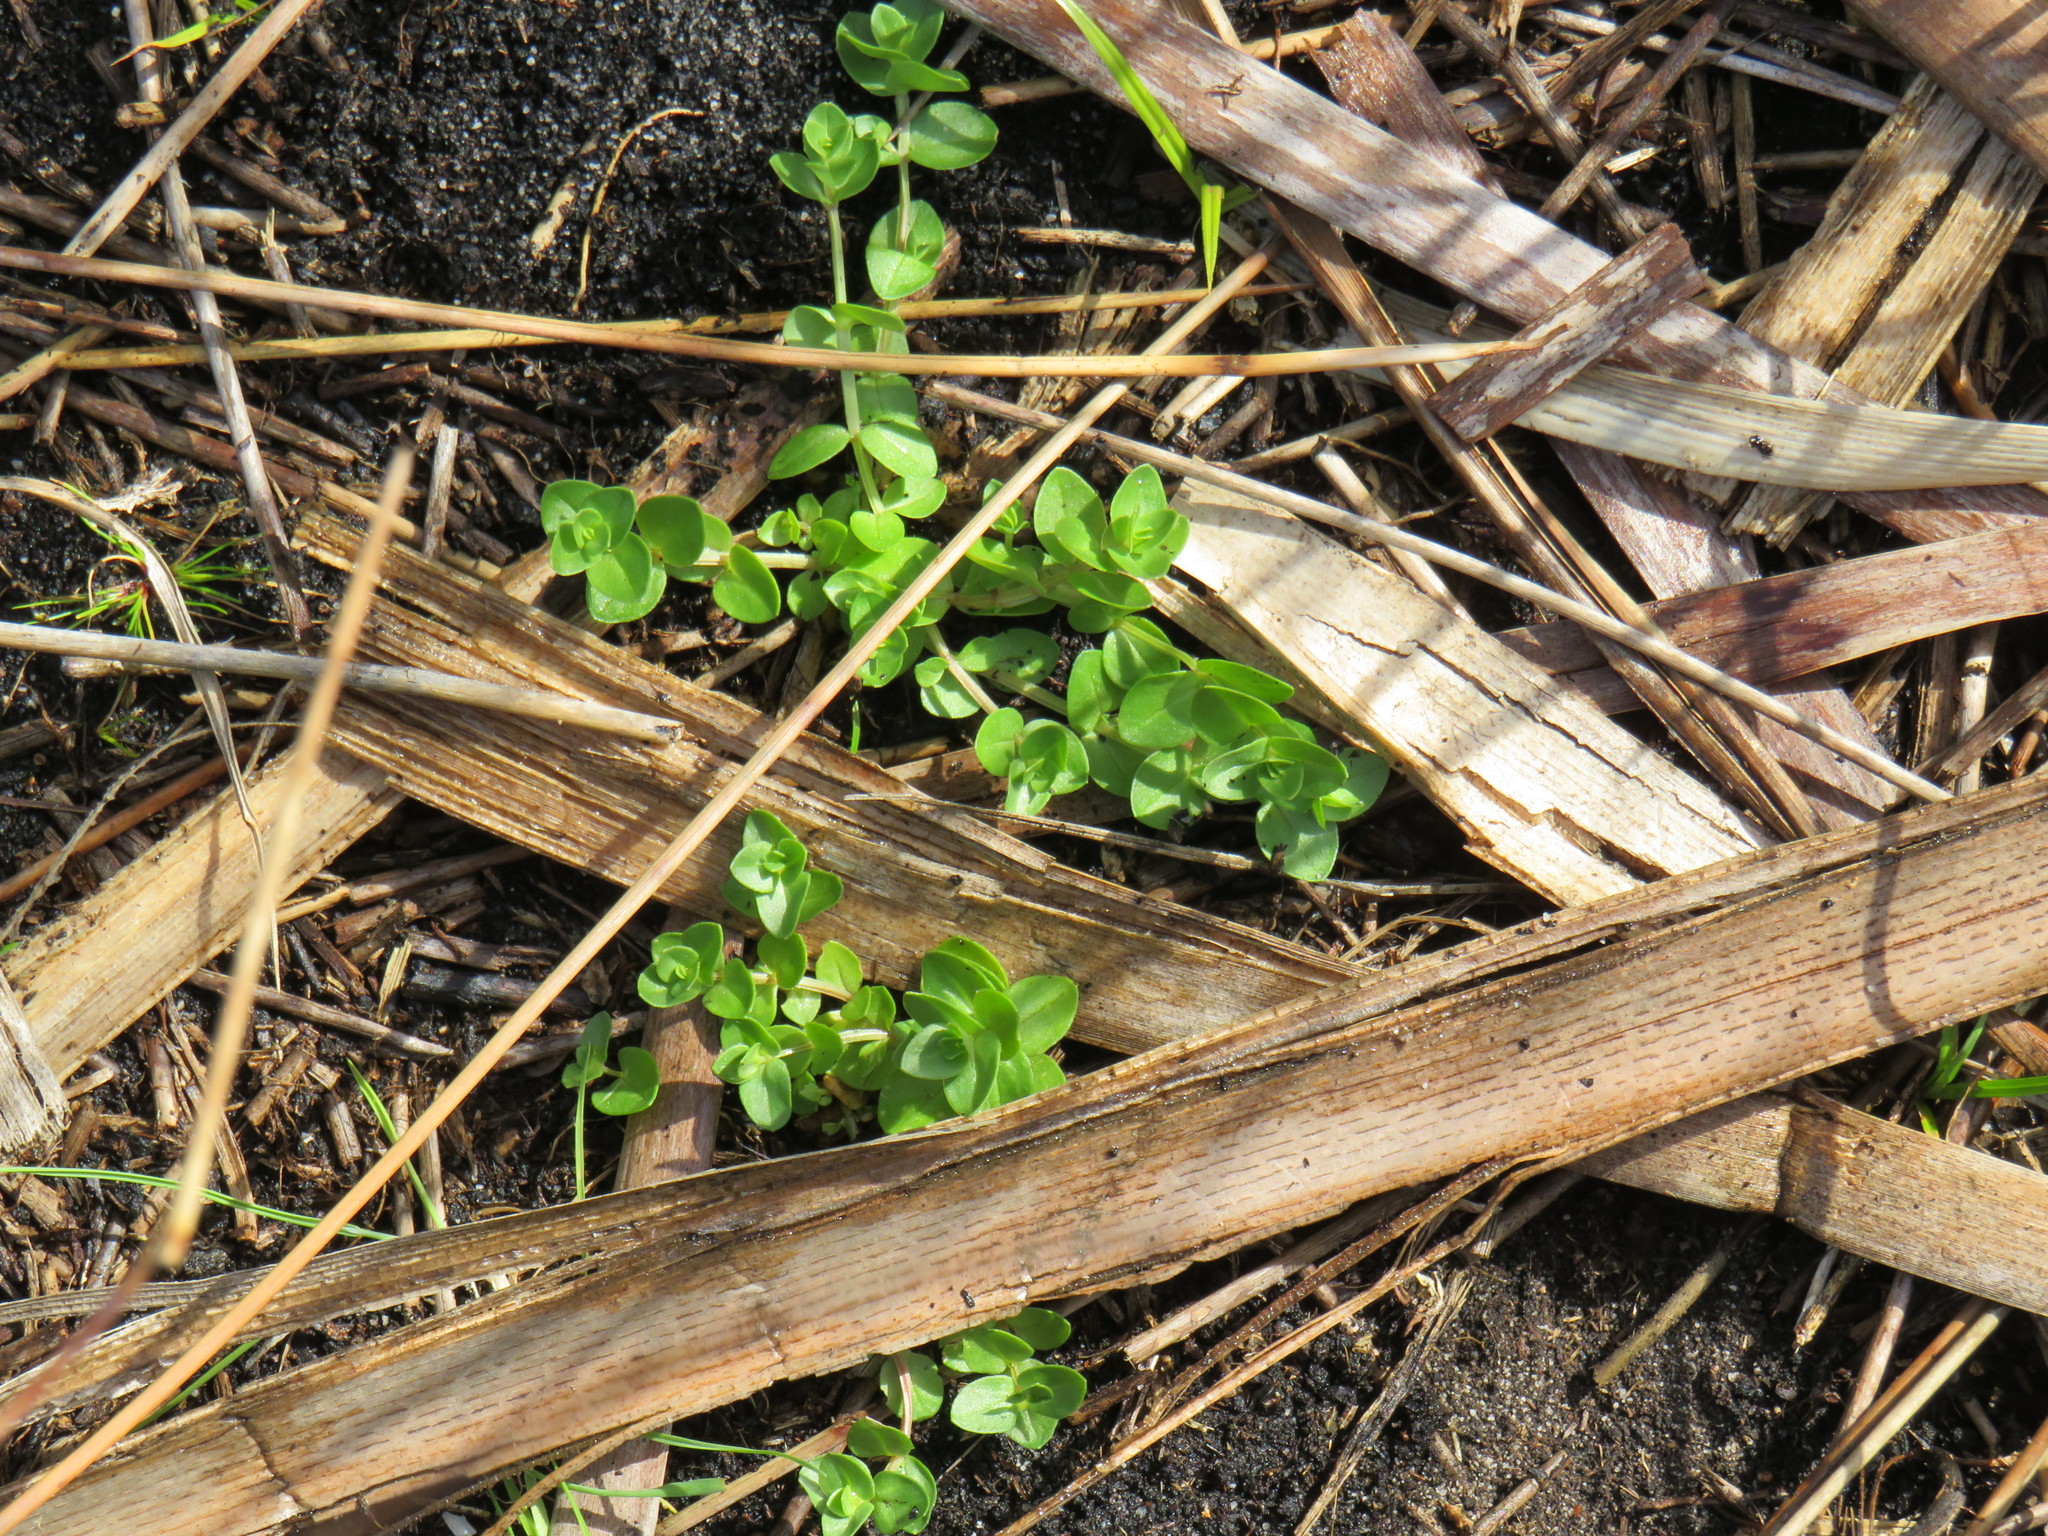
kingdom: Plantae
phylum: Tracheophyta
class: Magnoliopsida
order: Ericales
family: Primulaceae
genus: Lysimachia
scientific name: Lysimachia arvensis
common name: Scarlet pimpernel
